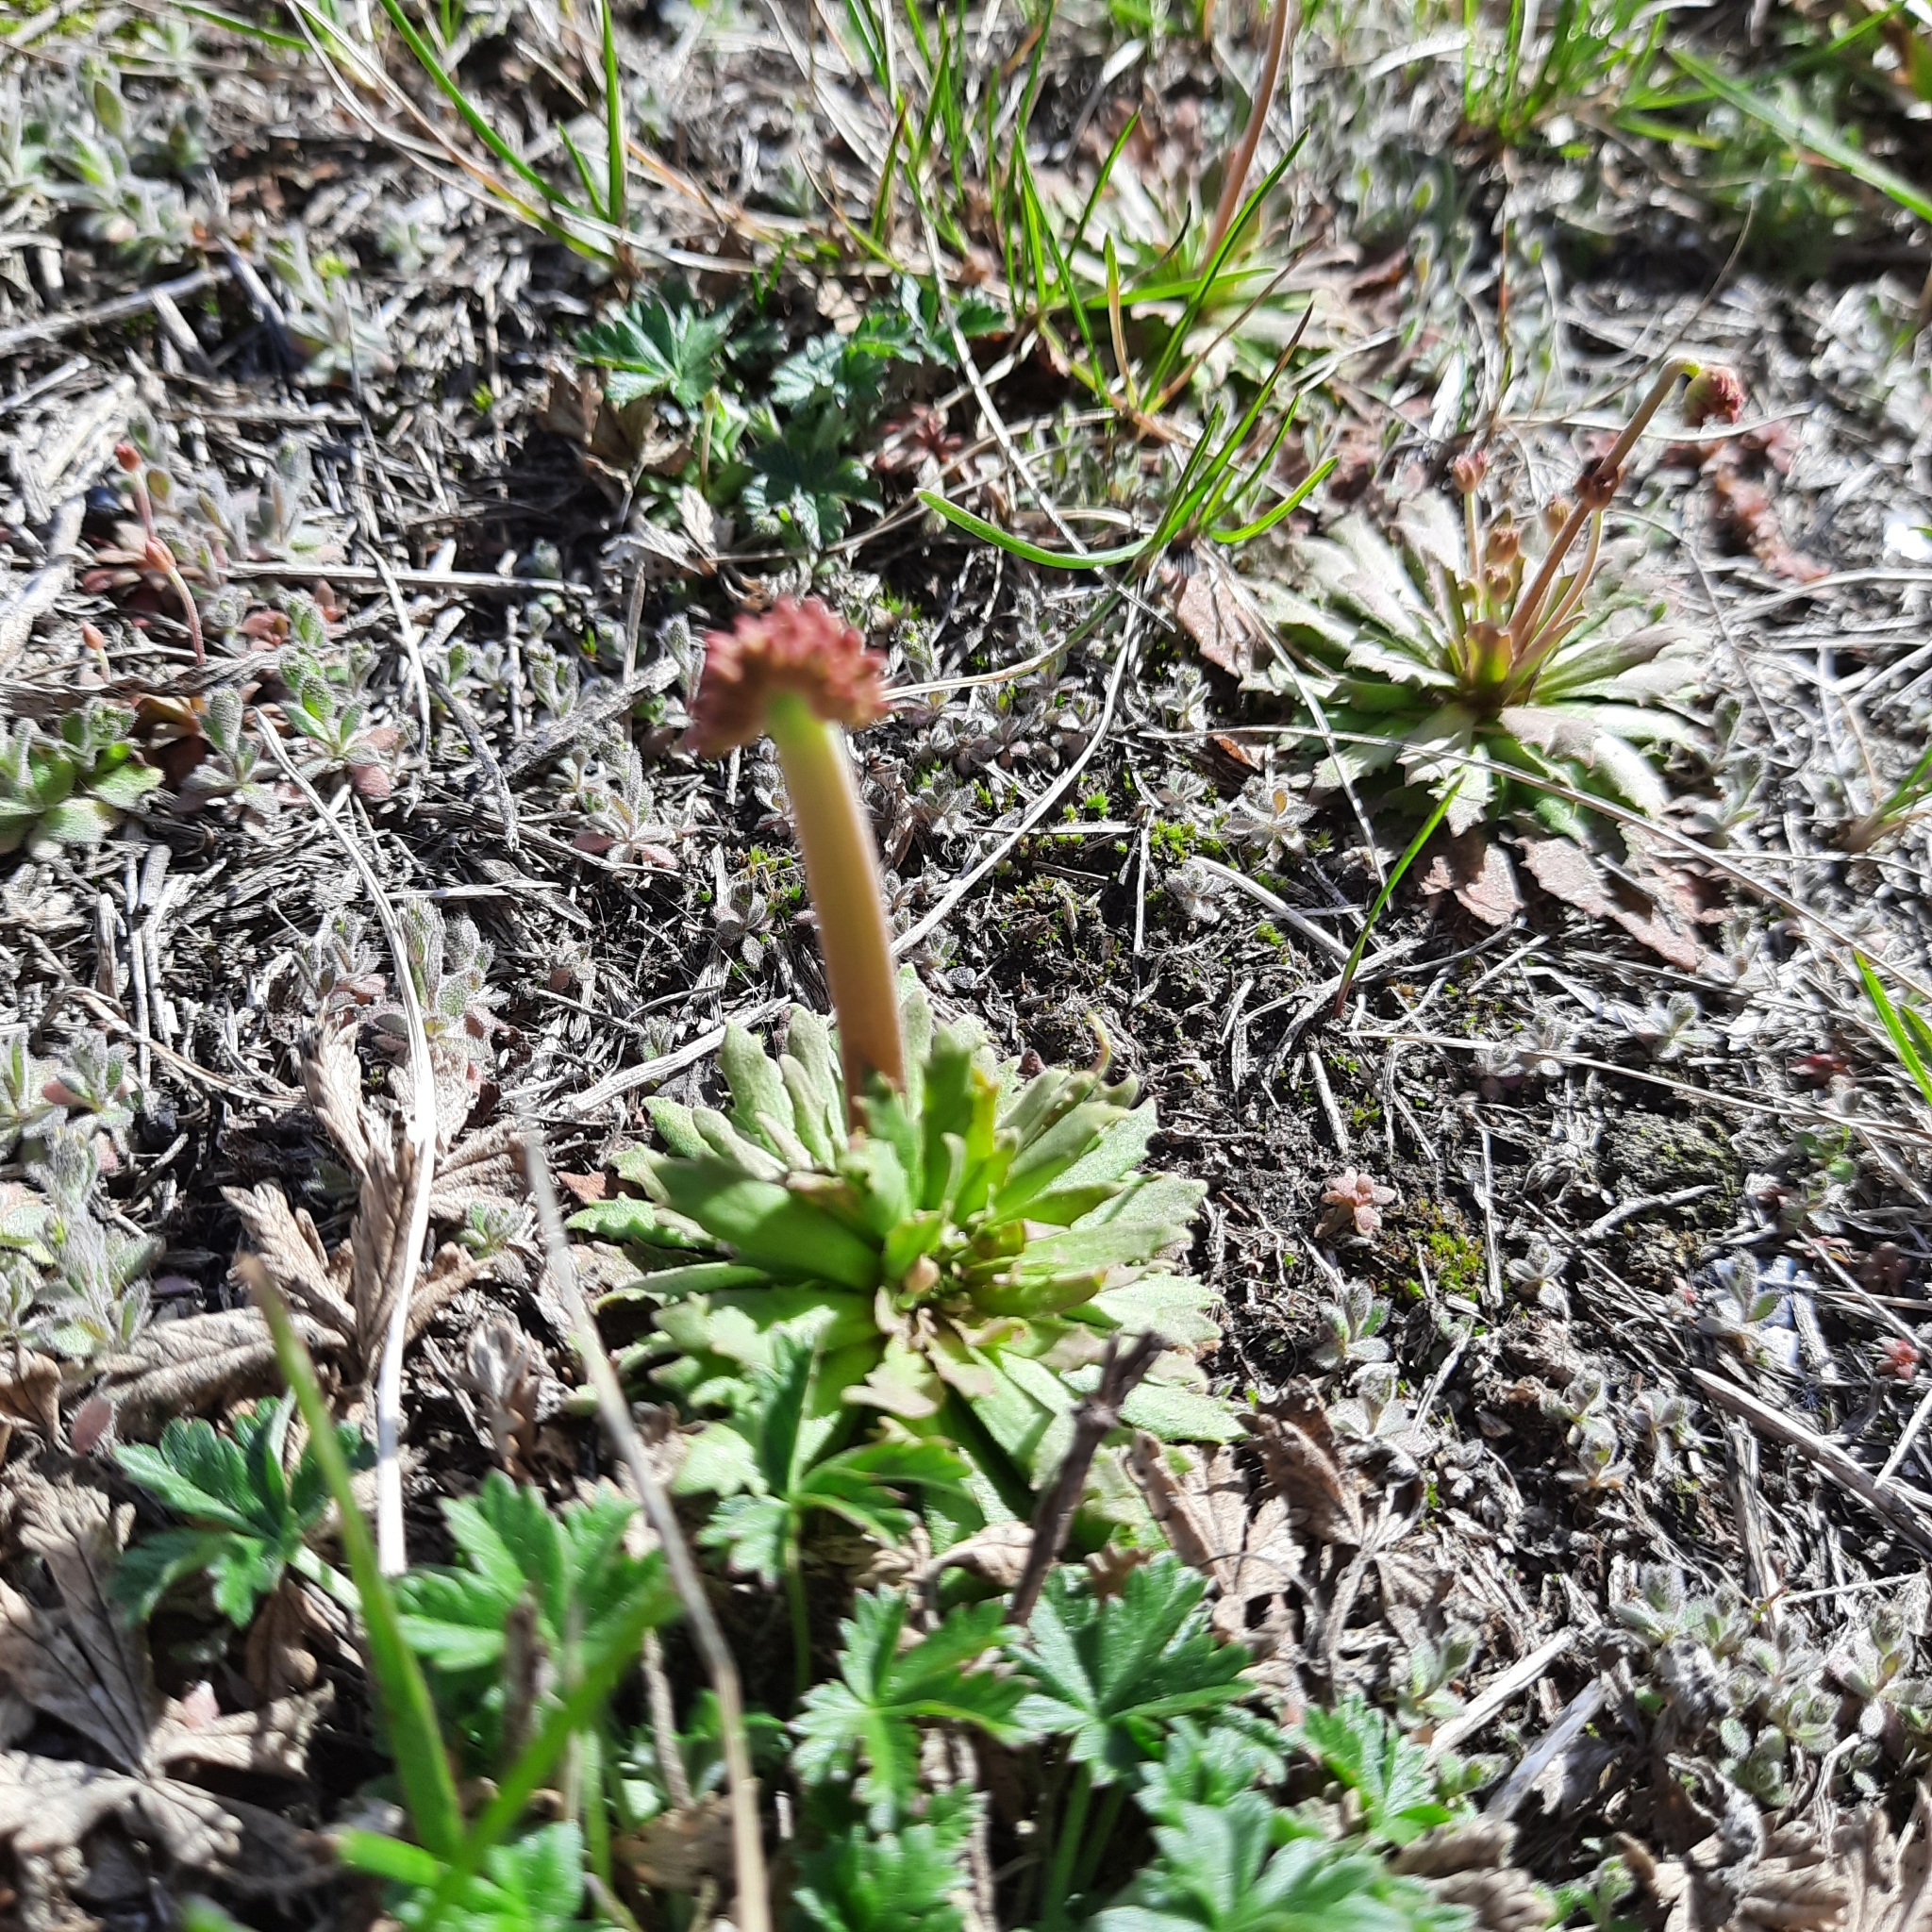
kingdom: Plantae
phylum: Tracheophyta
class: Magnoliopsida
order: Ericales
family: Primulaceae
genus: Androsace
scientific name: Androsace septentrionalis
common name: Hairy northern fairy-candelabra
